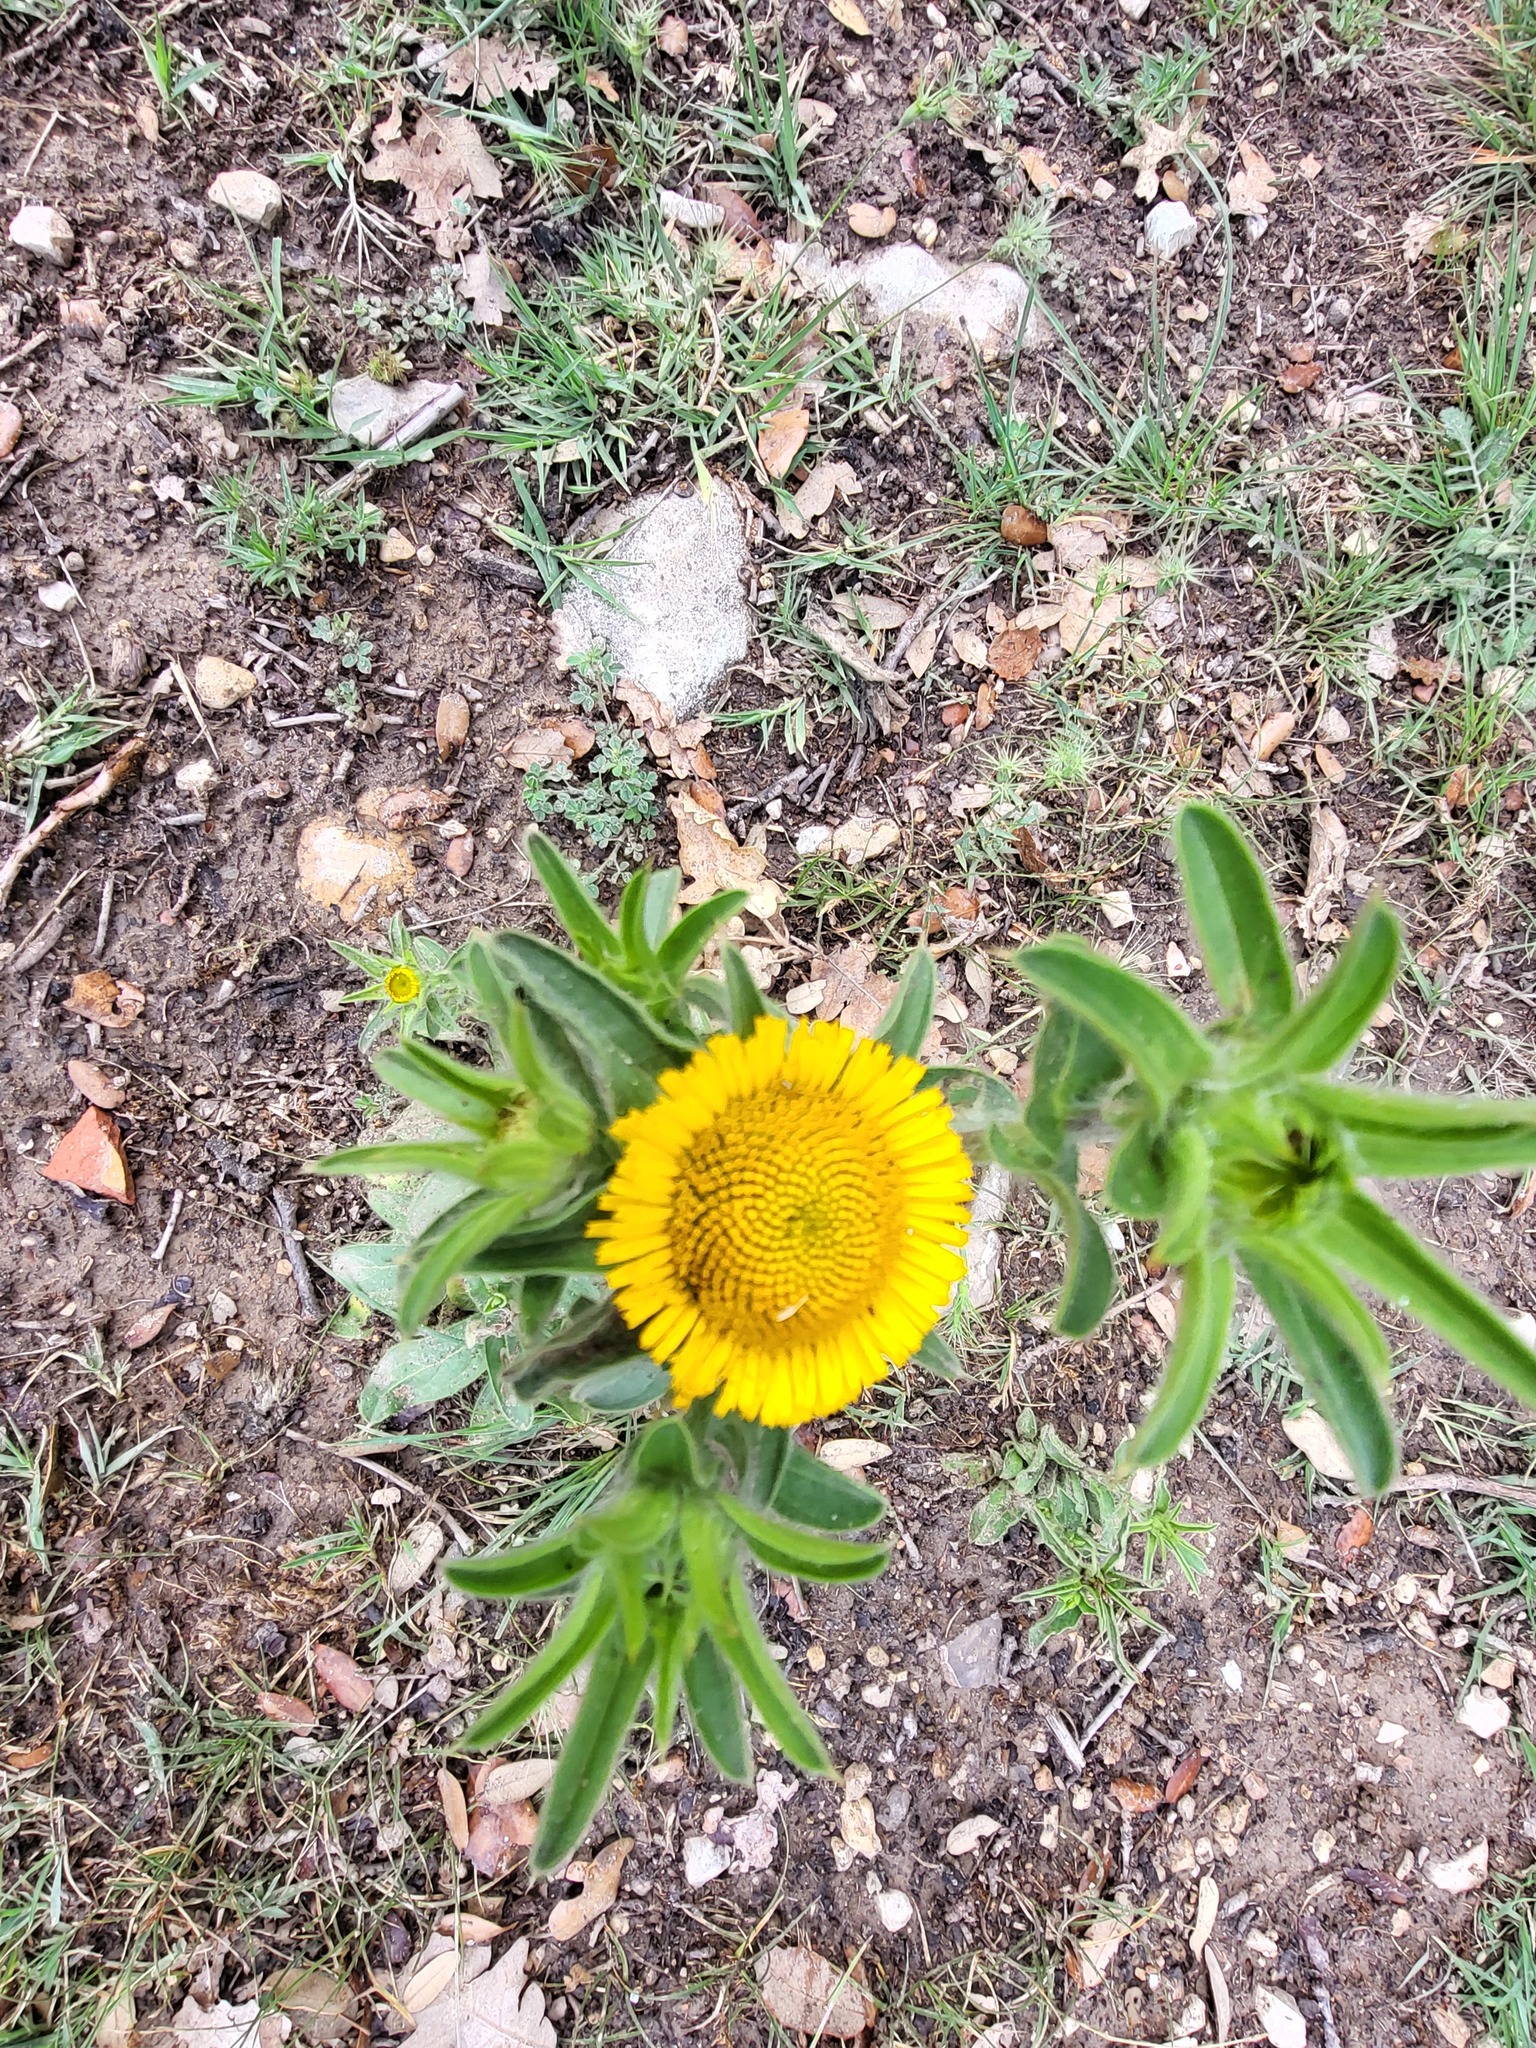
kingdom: Plantae
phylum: Tracheophyta
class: Magnoliopsida
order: Asterales
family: Asteraceae
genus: Pallenis
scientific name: Pallenis spinosa
